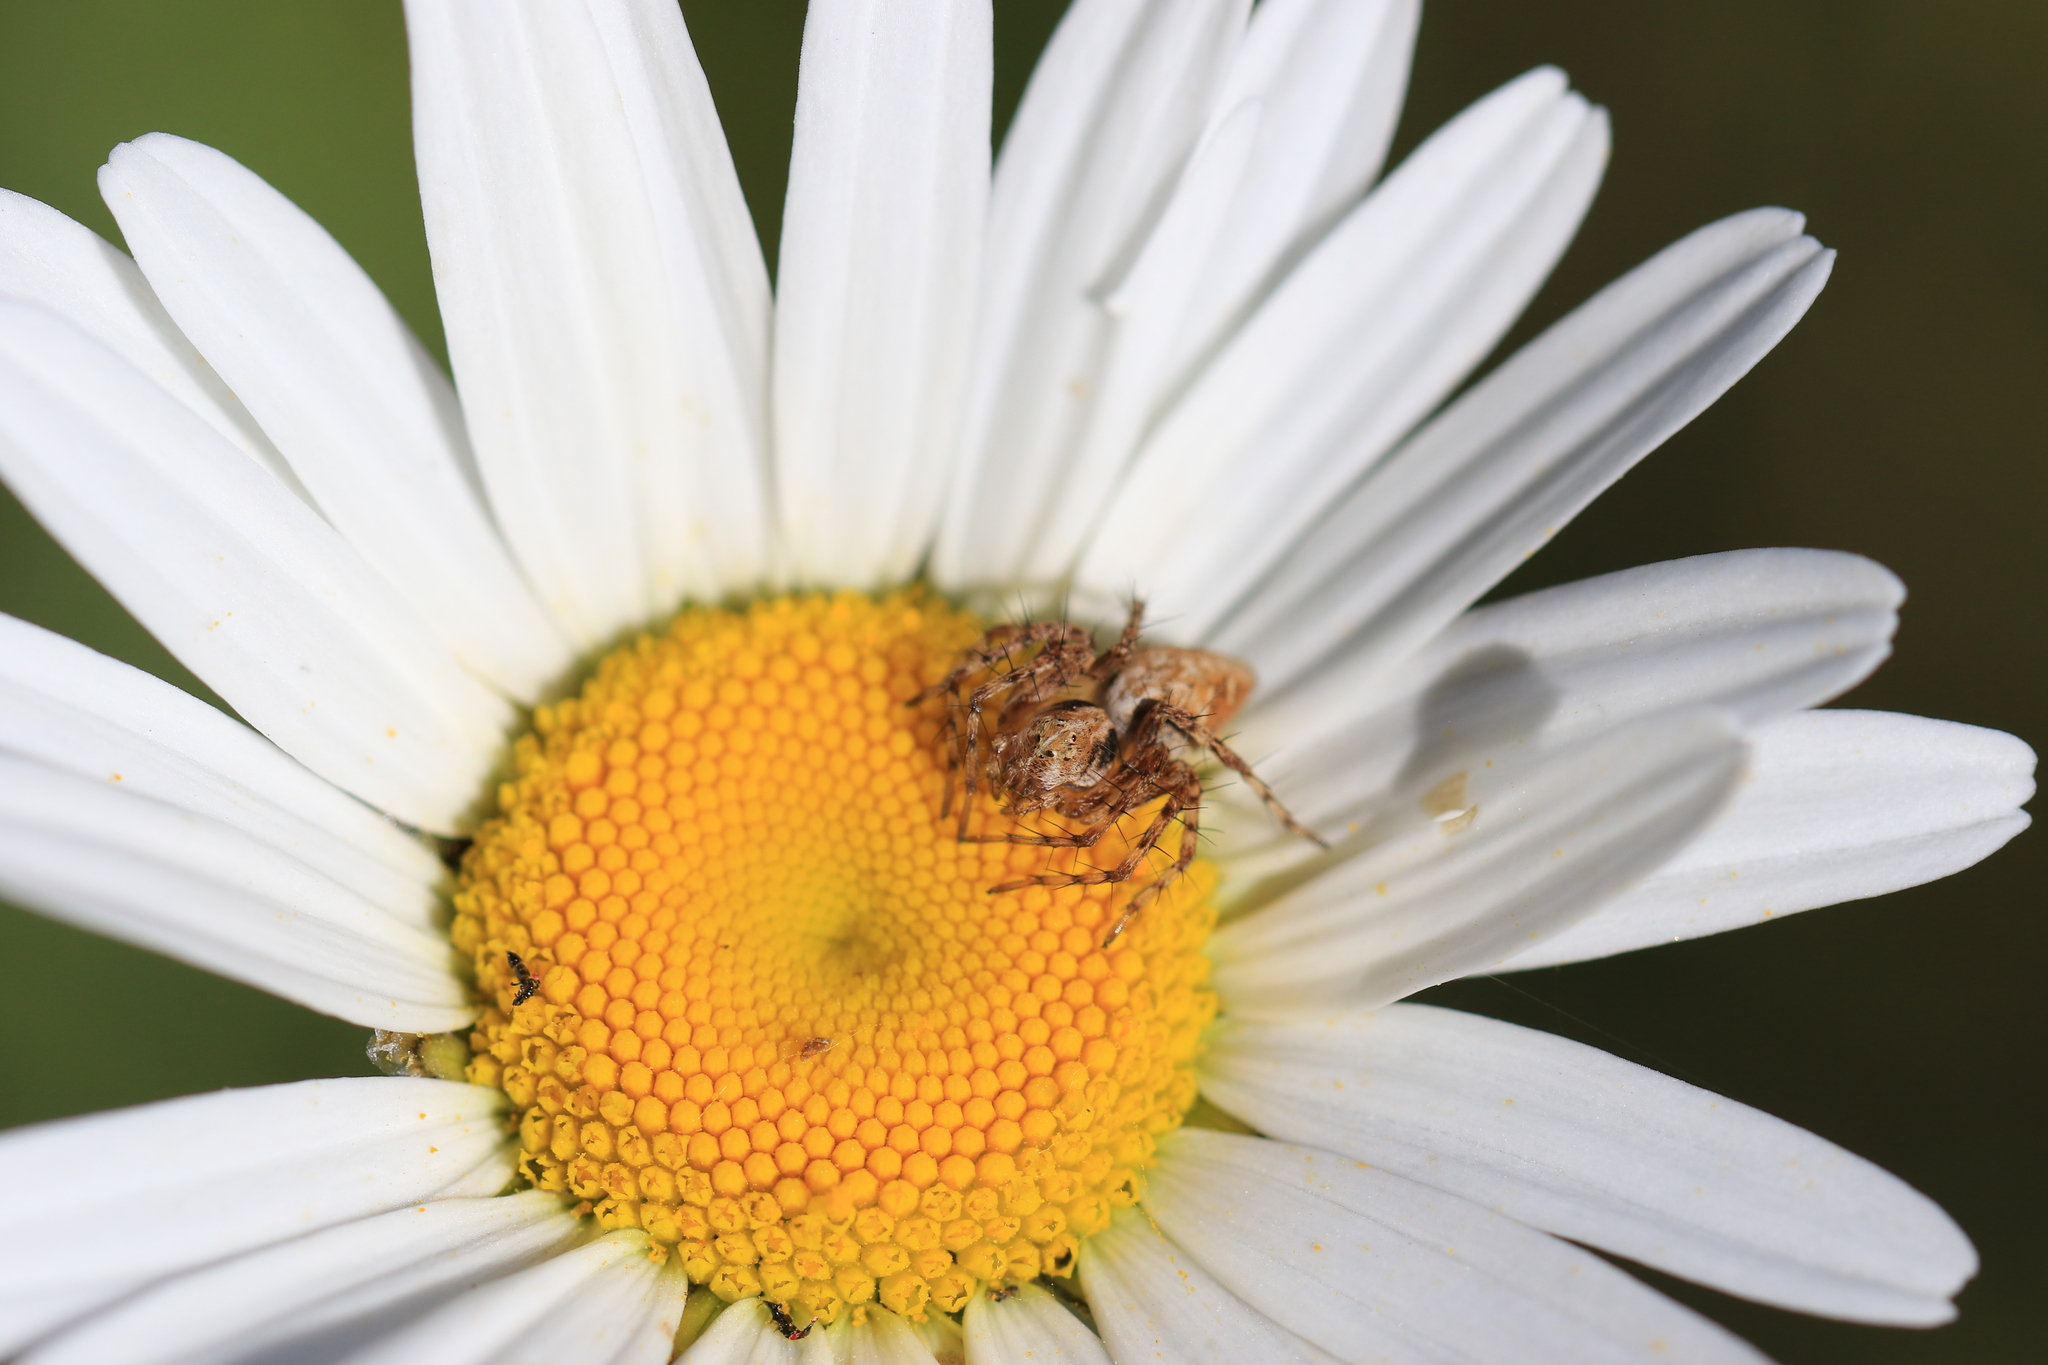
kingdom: Animalia
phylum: Arthropoda
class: Arachnida
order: Araneae
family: Oxyopidae
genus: Oxyopes
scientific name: Oxyopes scalaris
